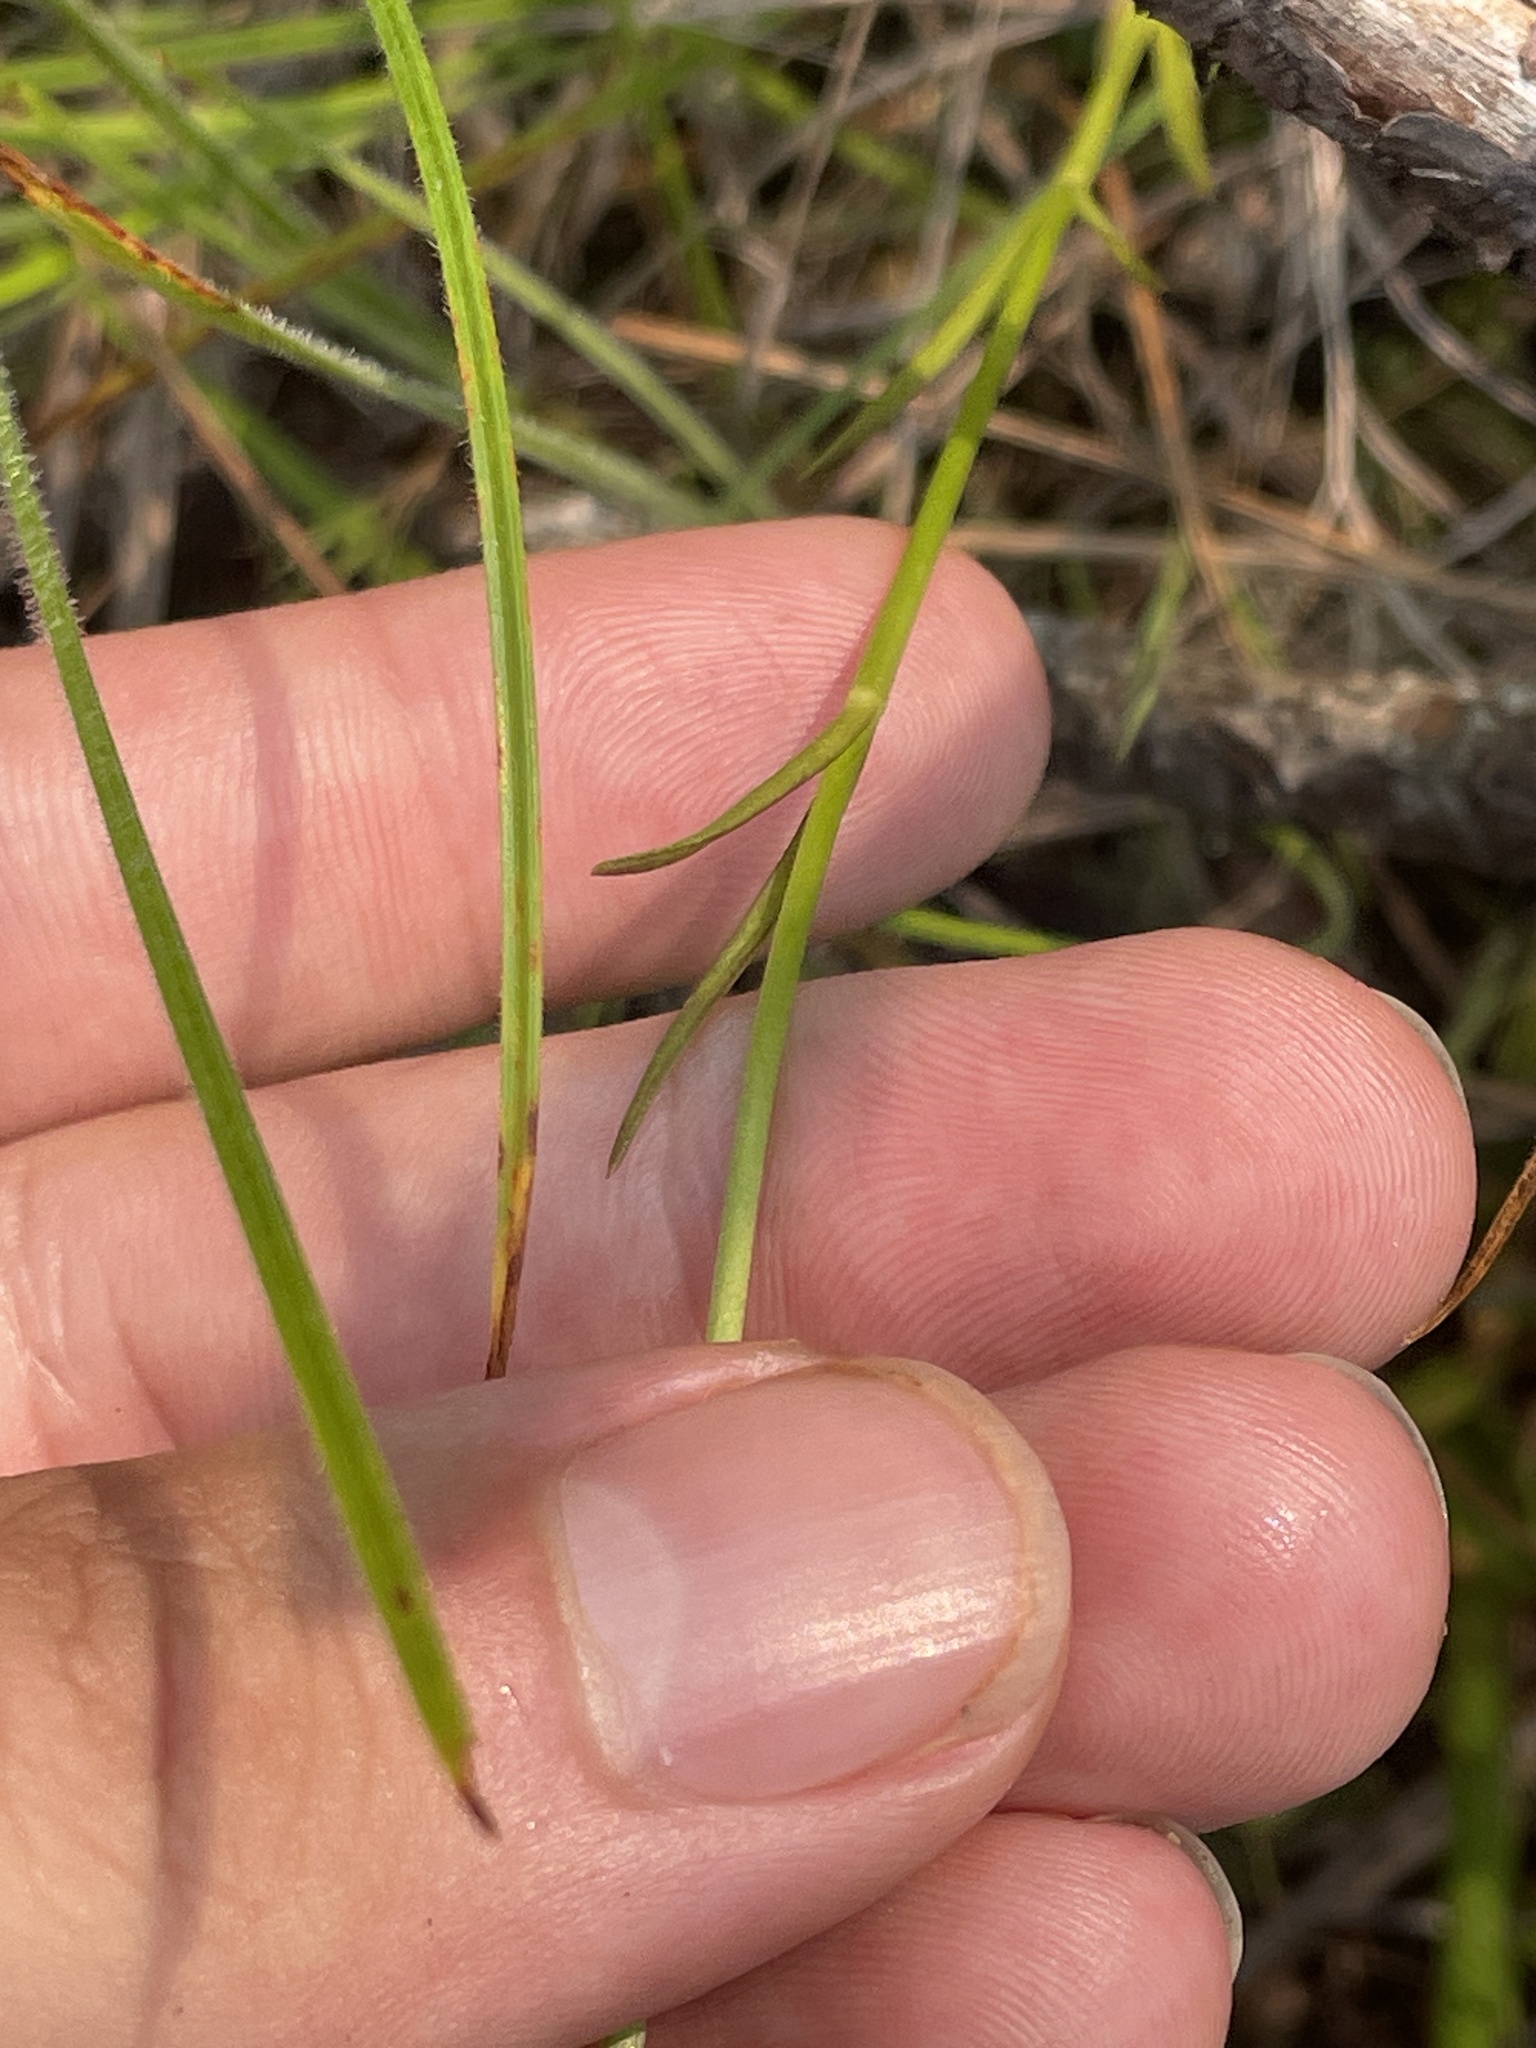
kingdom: Plantae
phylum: Tracheophyta
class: Magnoliopsida
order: Gentianales
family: Gentianaceae
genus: Sabatia
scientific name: Sabatia gentianoides
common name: Pinewoods rose-gentian
